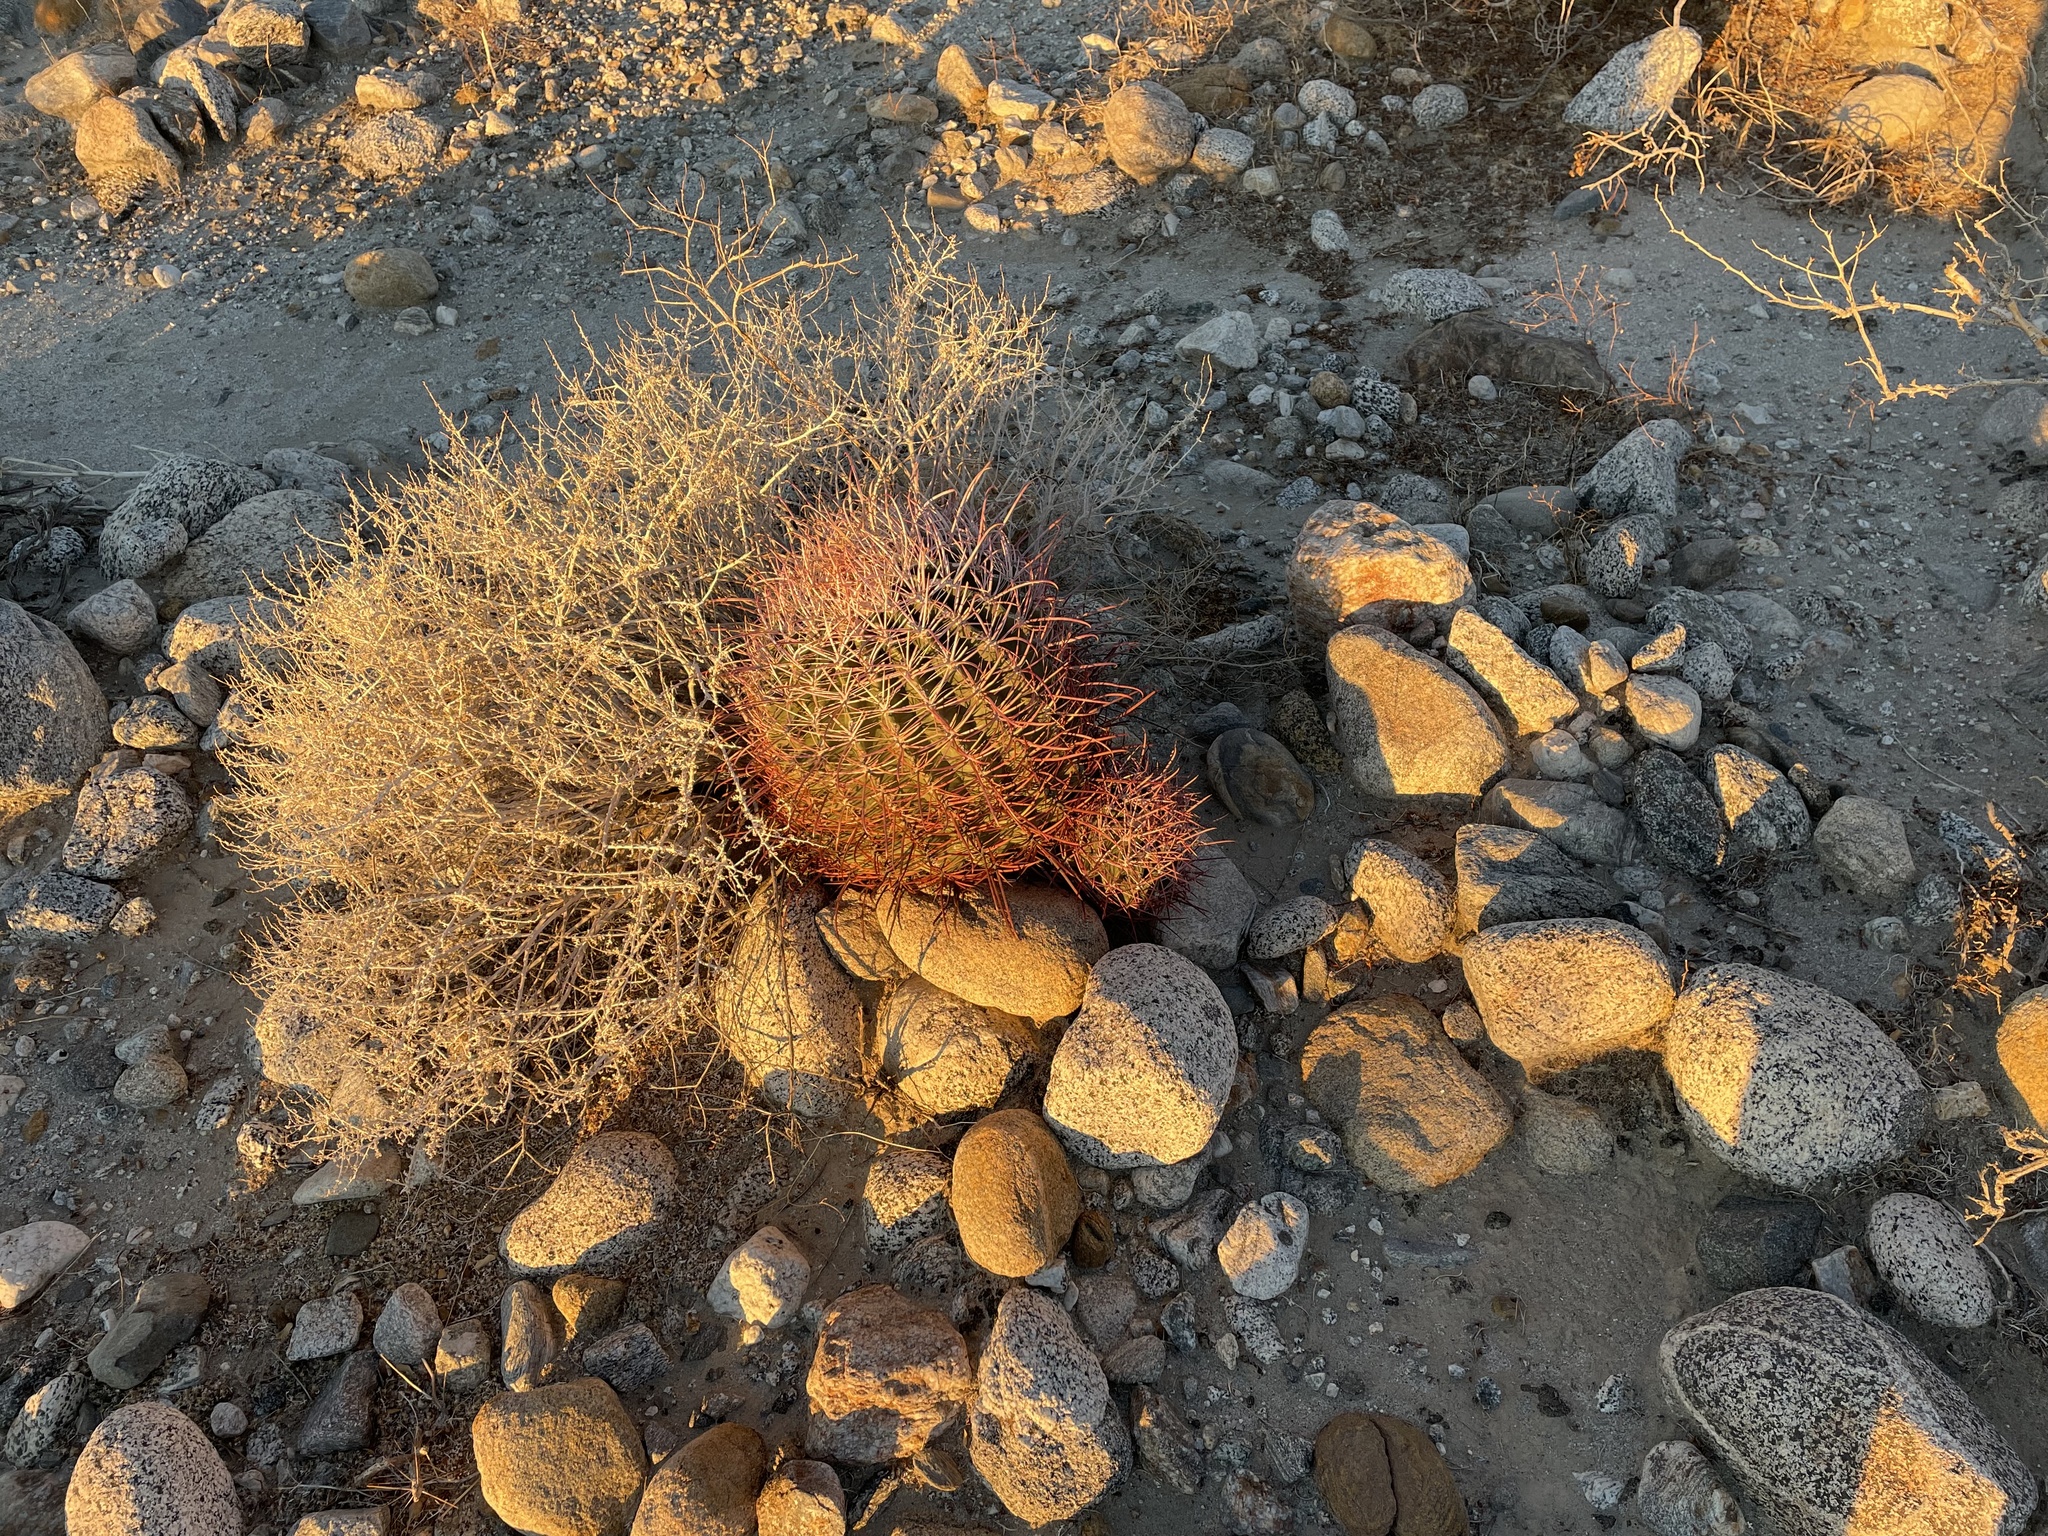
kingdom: Plantae
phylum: Tracheophyta
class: Magnoliopsida
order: Caryophyllales
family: Cactaceae
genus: Ferocactus
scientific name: Ferocactus cylindraceus
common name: California barrel cactus
